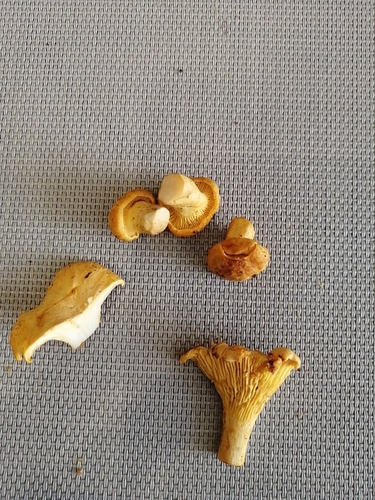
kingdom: Fungi
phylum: Basidiomycota
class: Agaricomycetes
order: Cantharellales
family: Hydnaceae
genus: Cantharellus
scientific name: Cantharellus cibarius
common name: Chanterelle
